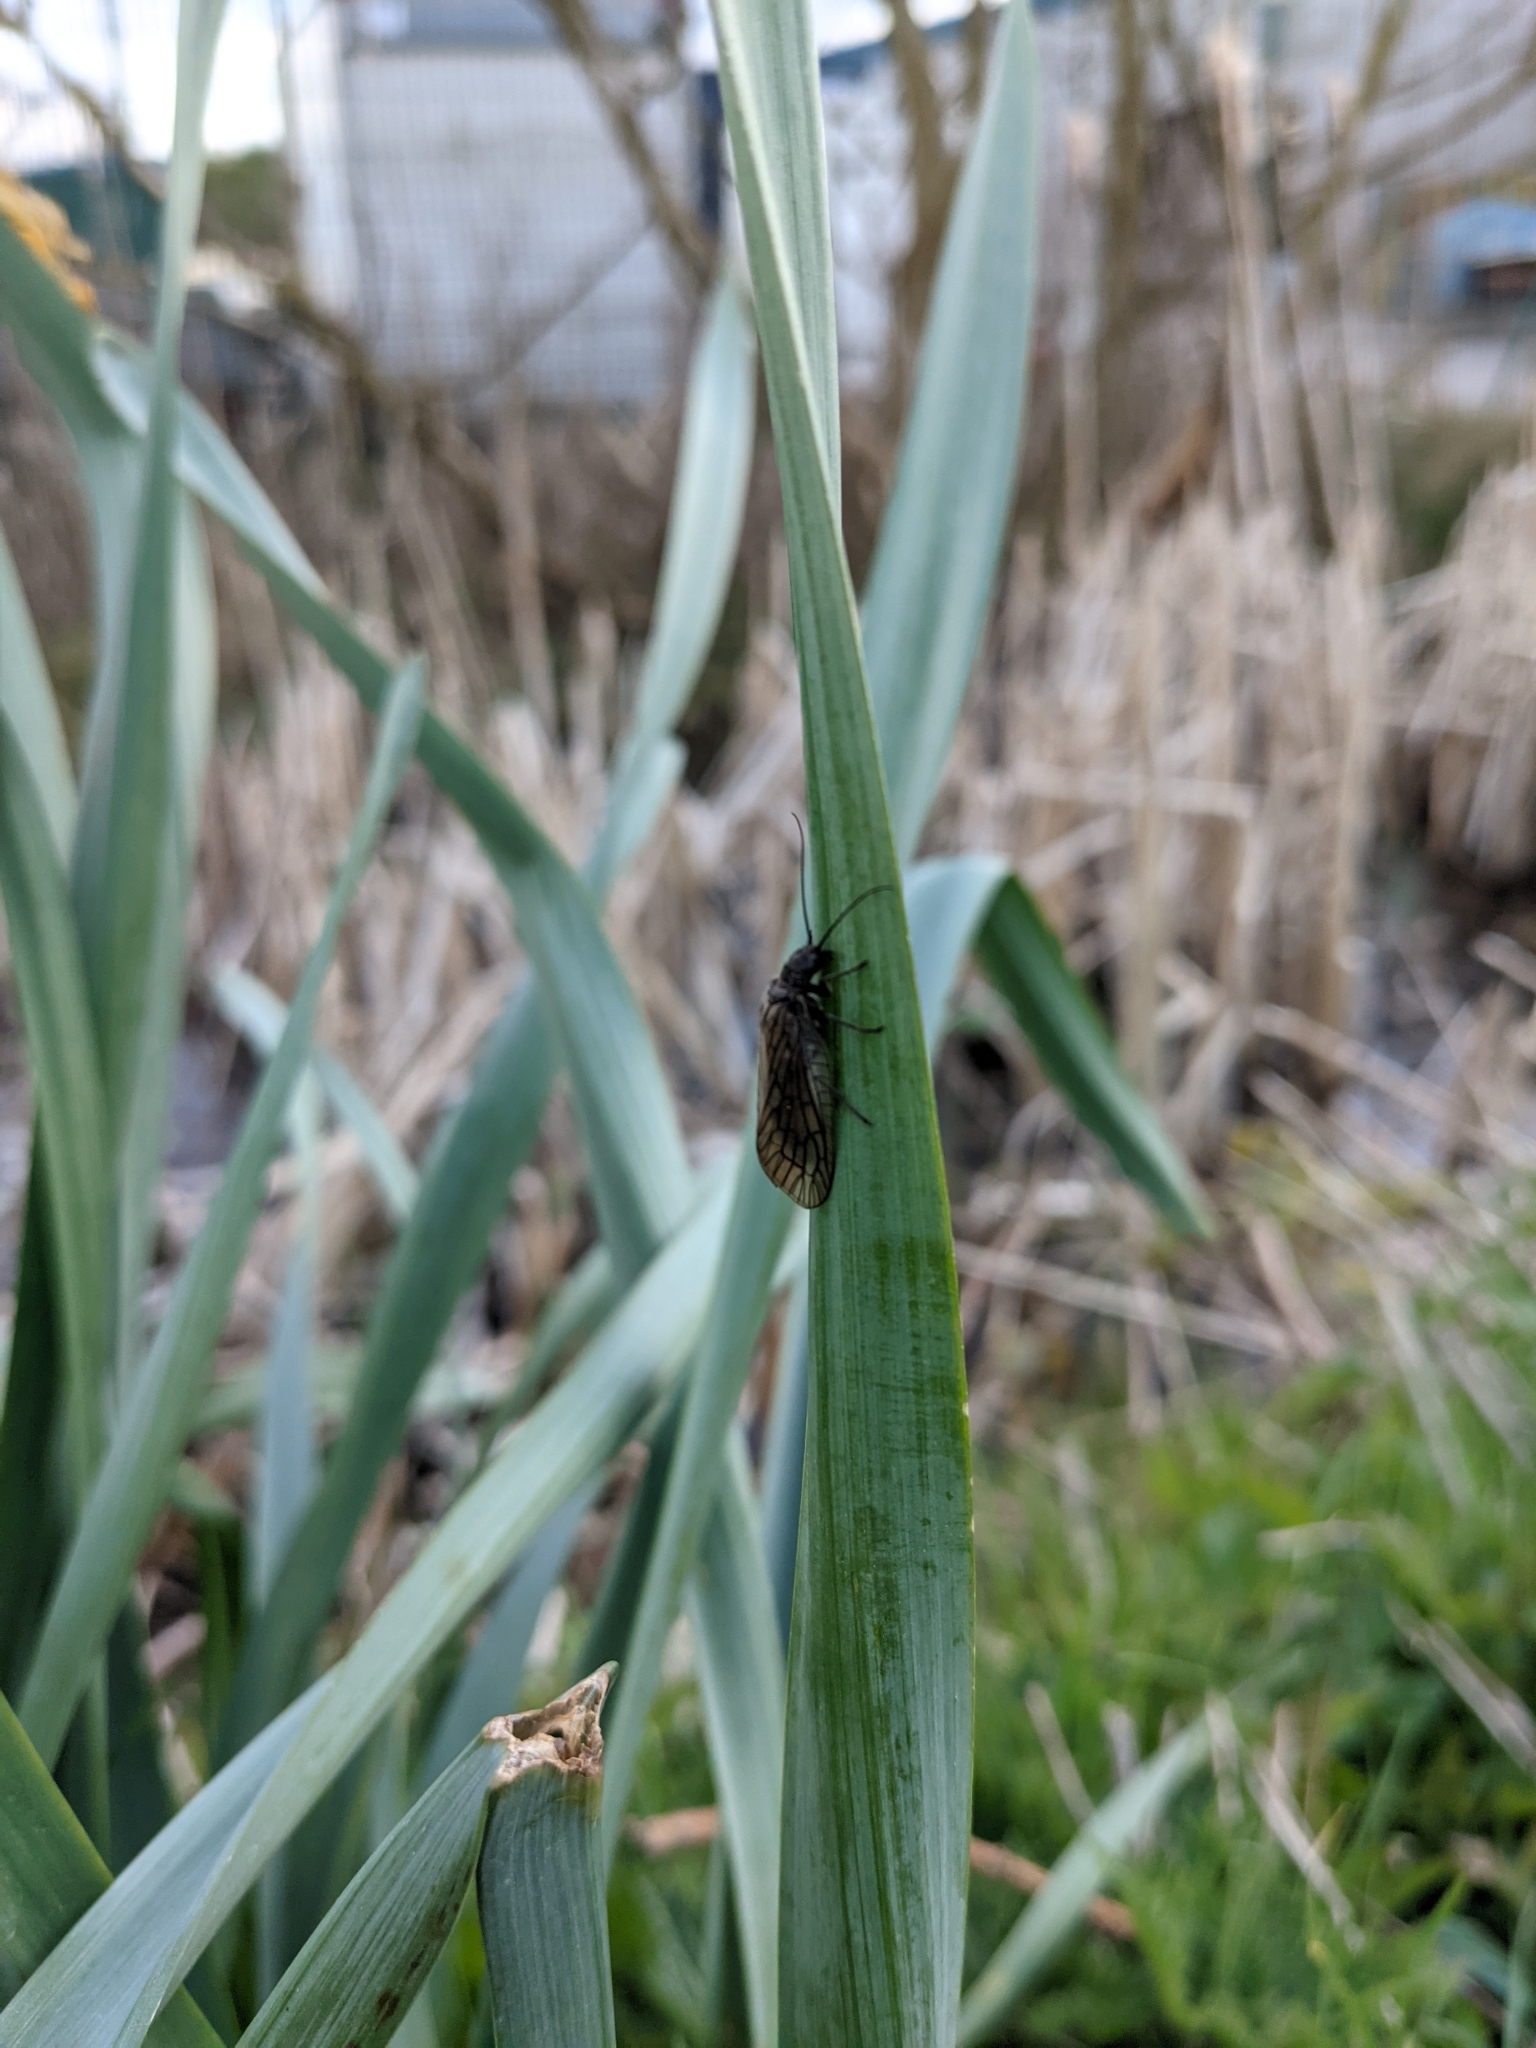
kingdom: Animalia
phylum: Arthropoda
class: Insecta
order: Megaloptera
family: Sialidae
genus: Sialis
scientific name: Sialis
